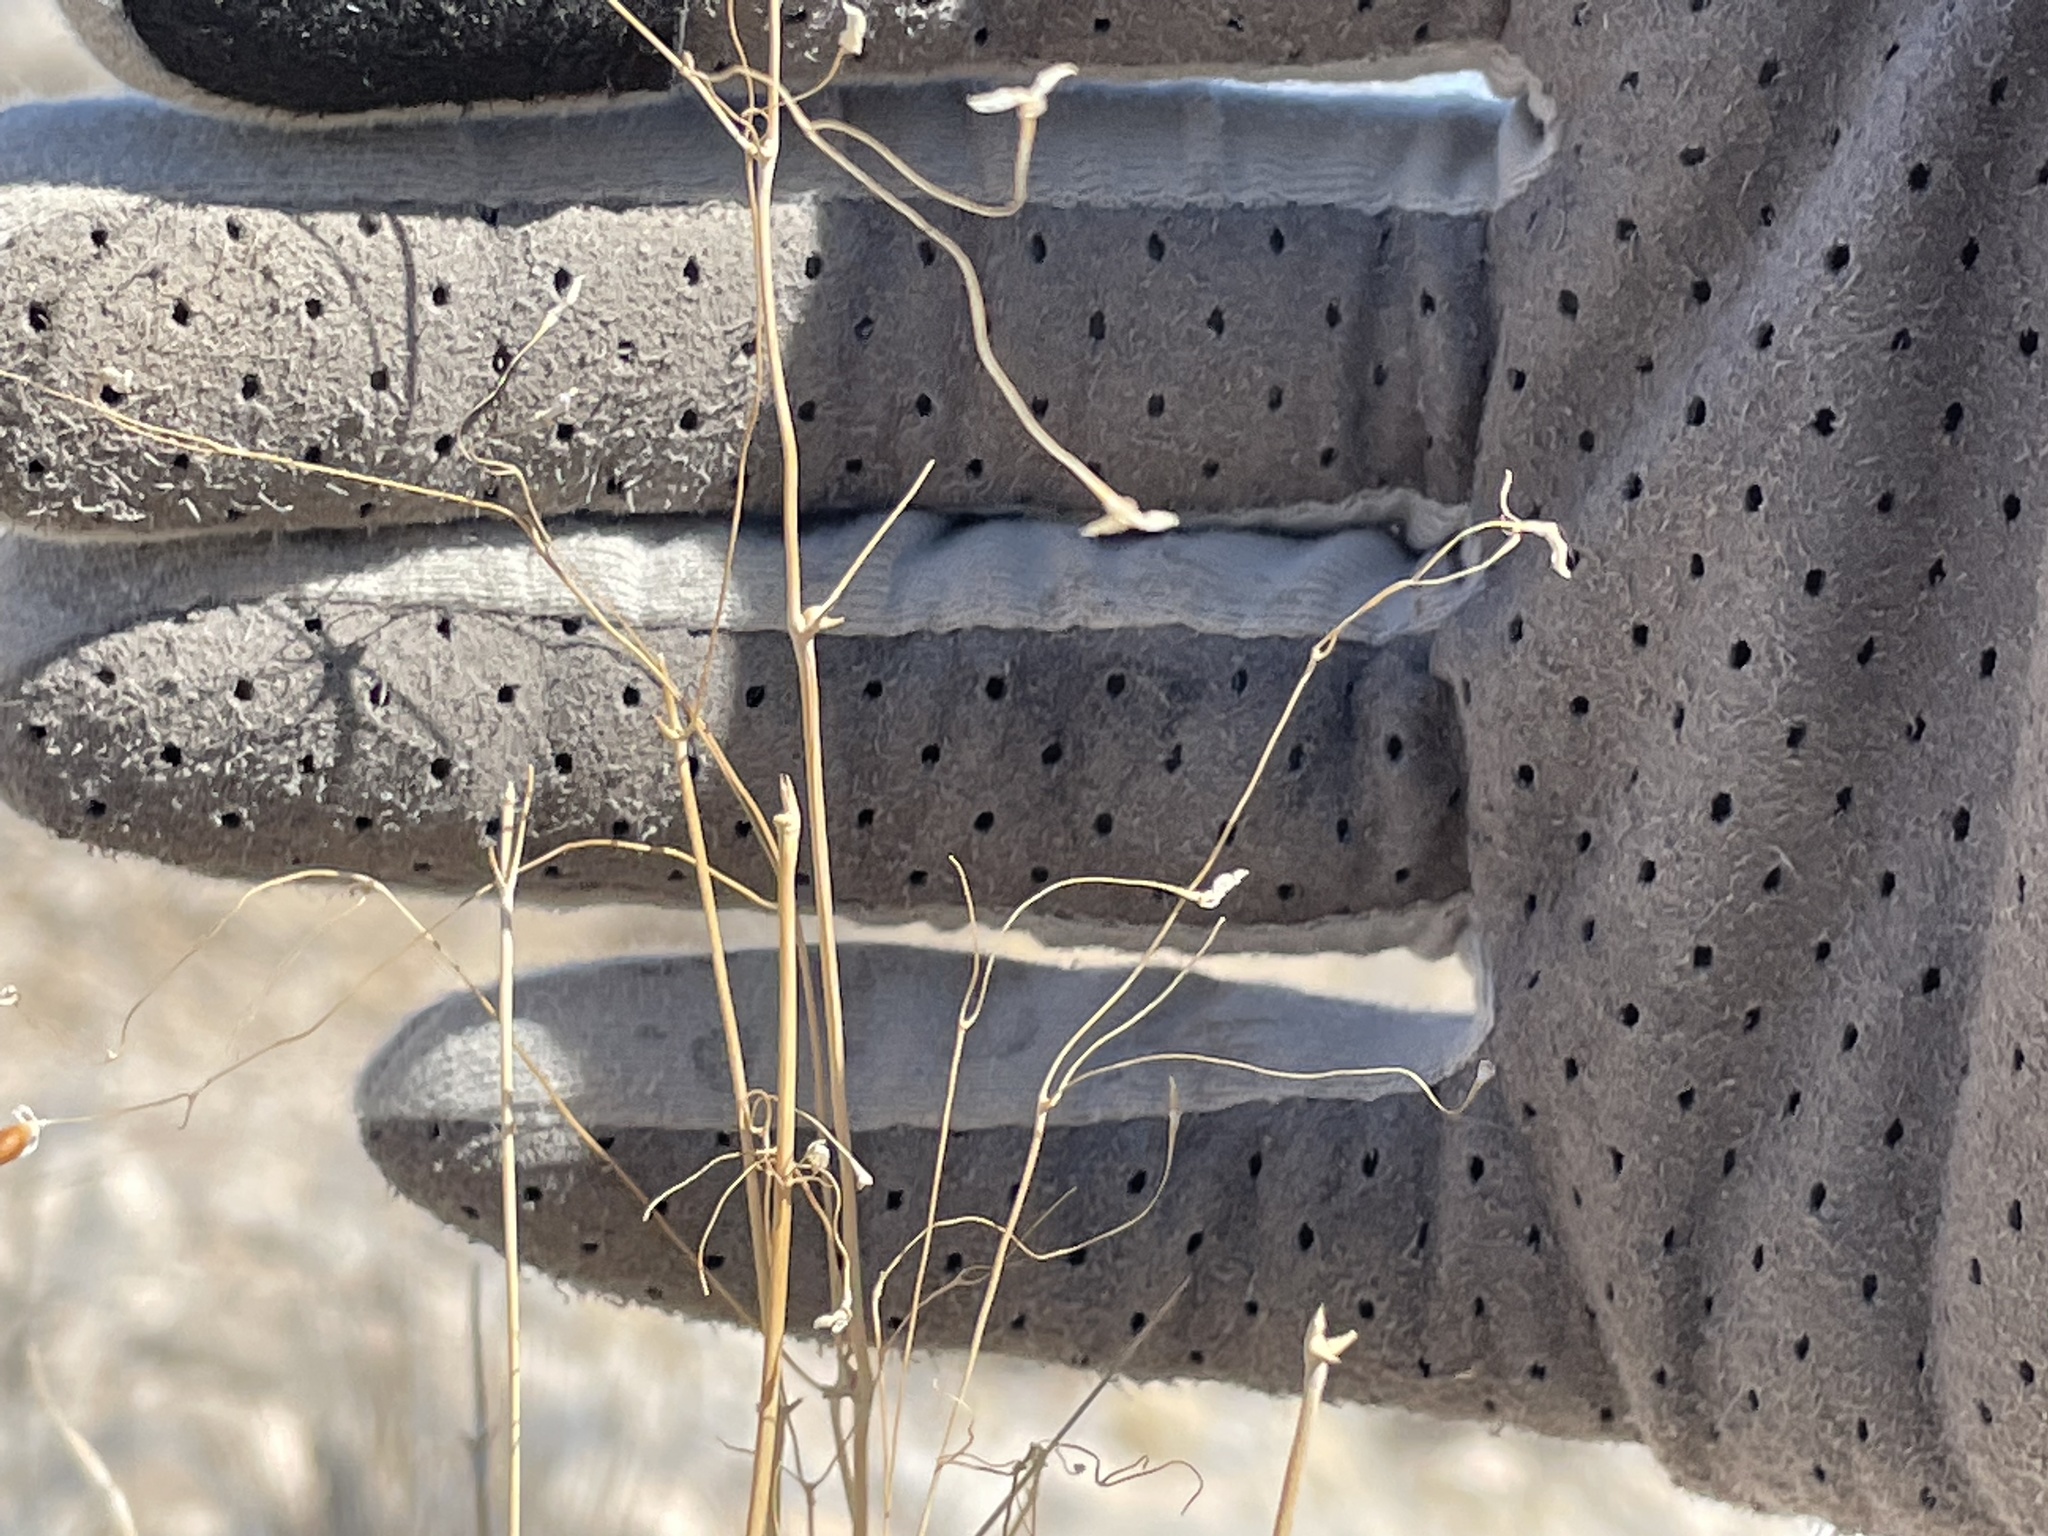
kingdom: Plantae
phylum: Tracheophyta
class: Liliopsida
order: Poales
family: Poaceae
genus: Eriocoma
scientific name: Eriocoma hymenoides
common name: Indian mountain ricegrass
